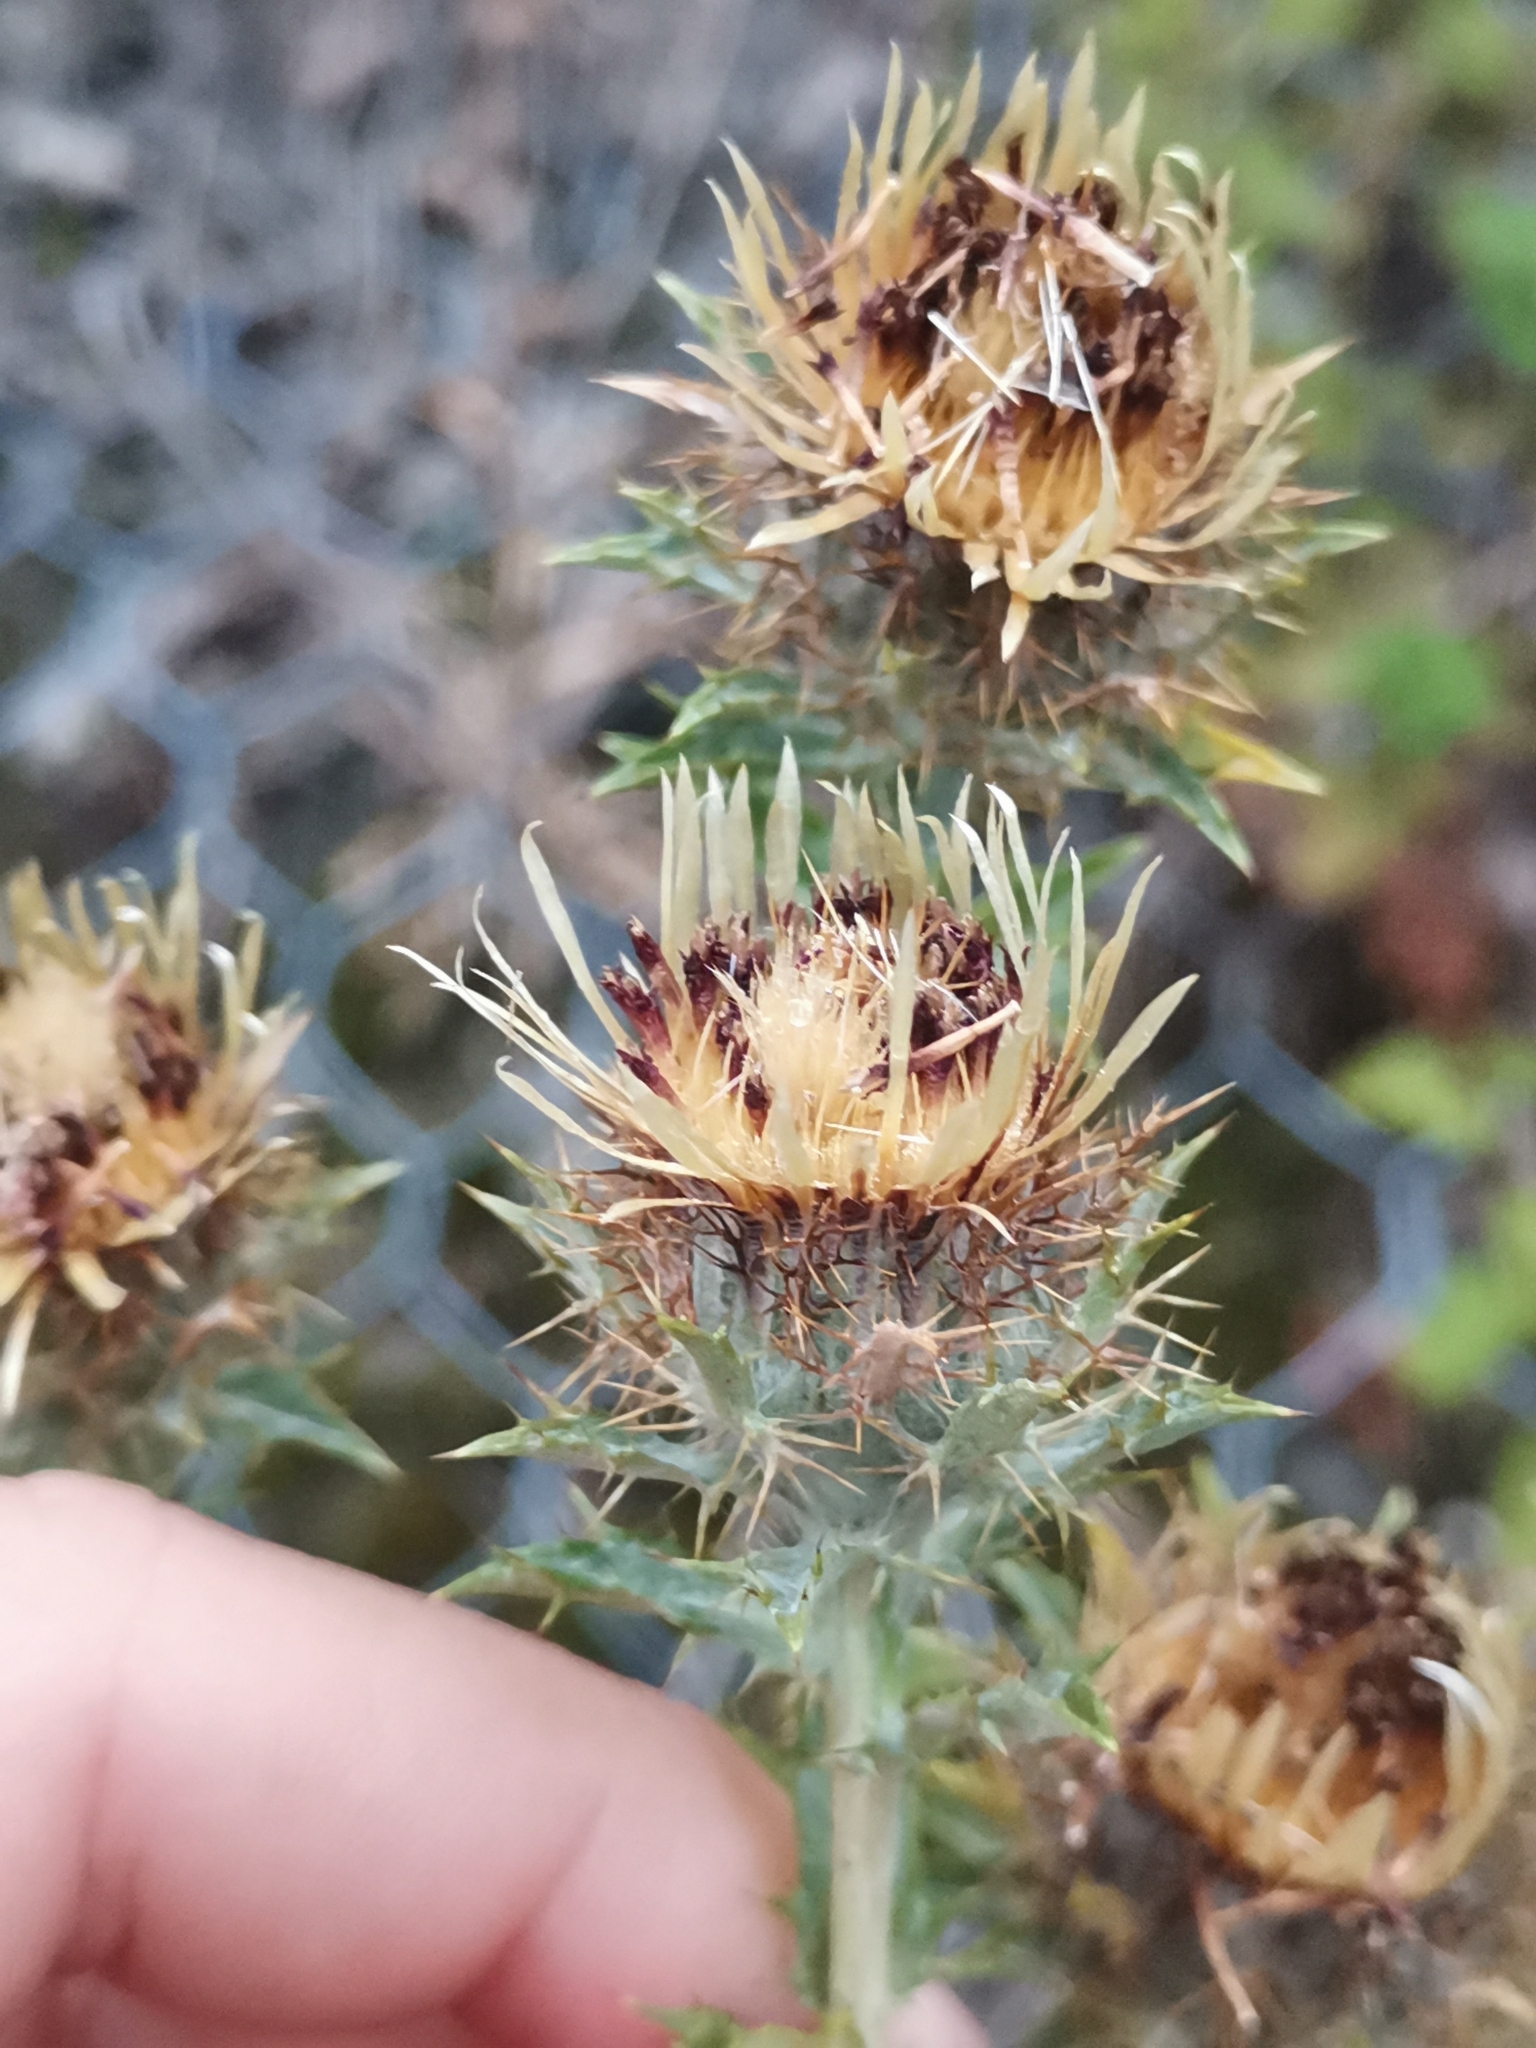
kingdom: Plantae
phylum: Tracheophyta
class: Magnoliopsida
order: Asterales
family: Asteraceae
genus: Carlina
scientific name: Carlina biebersteinii
